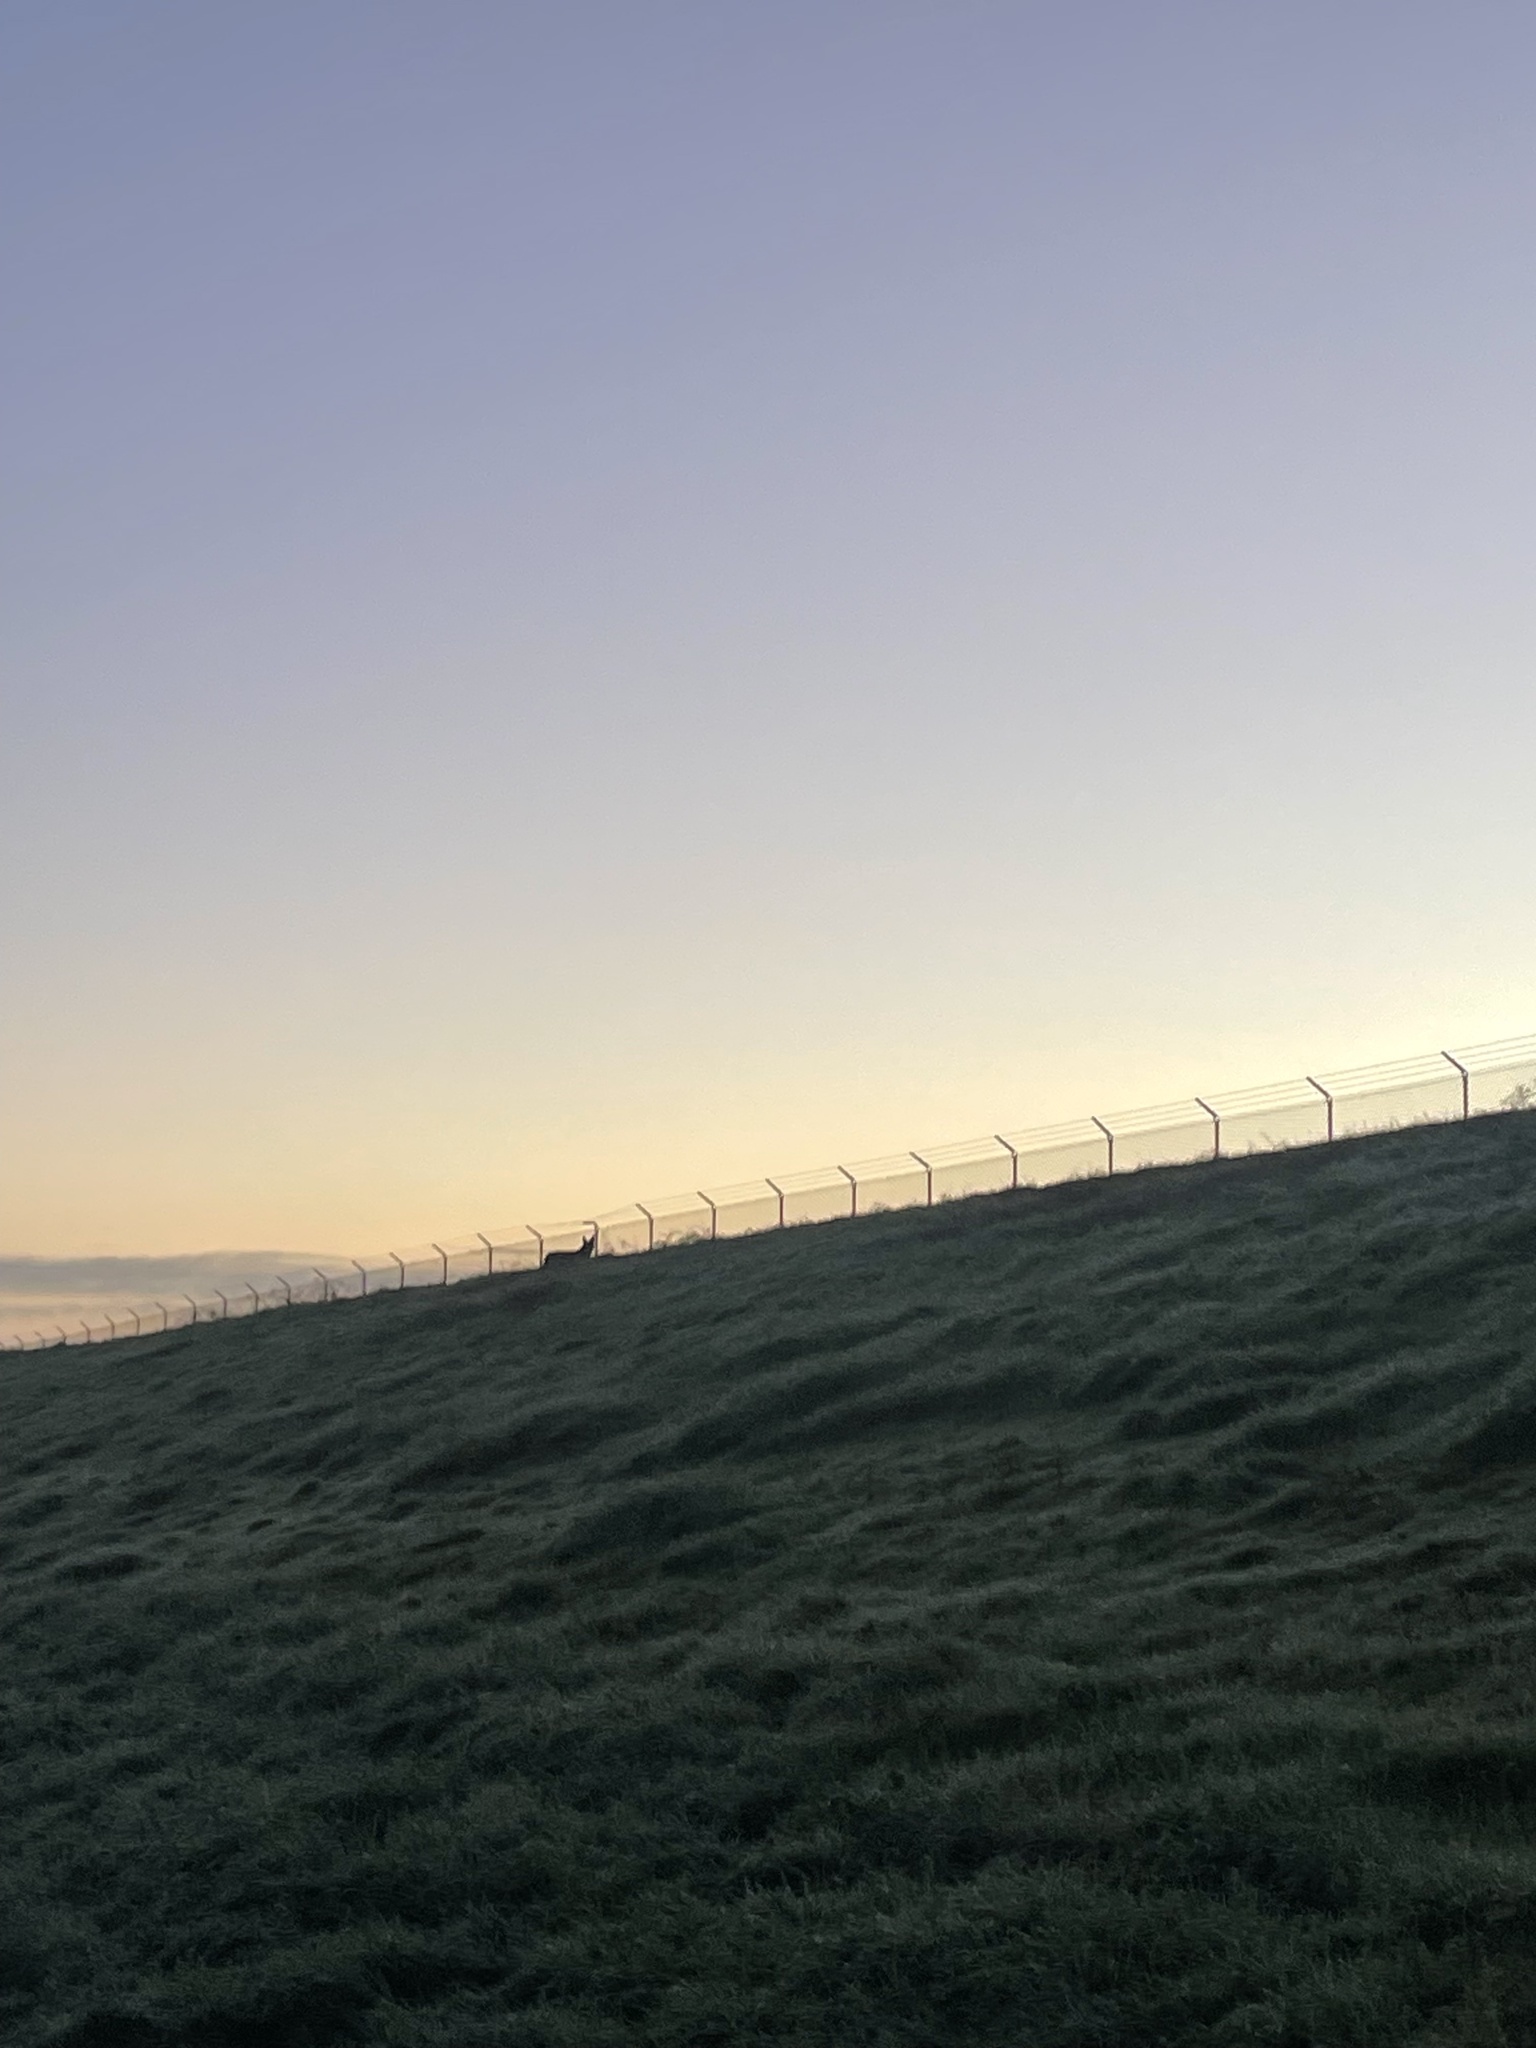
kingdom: Animalia
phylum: Chordata
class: Mammalia
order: Carnivora
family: Canidae
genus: Canis
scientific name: Canis latrans
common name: Coyote
